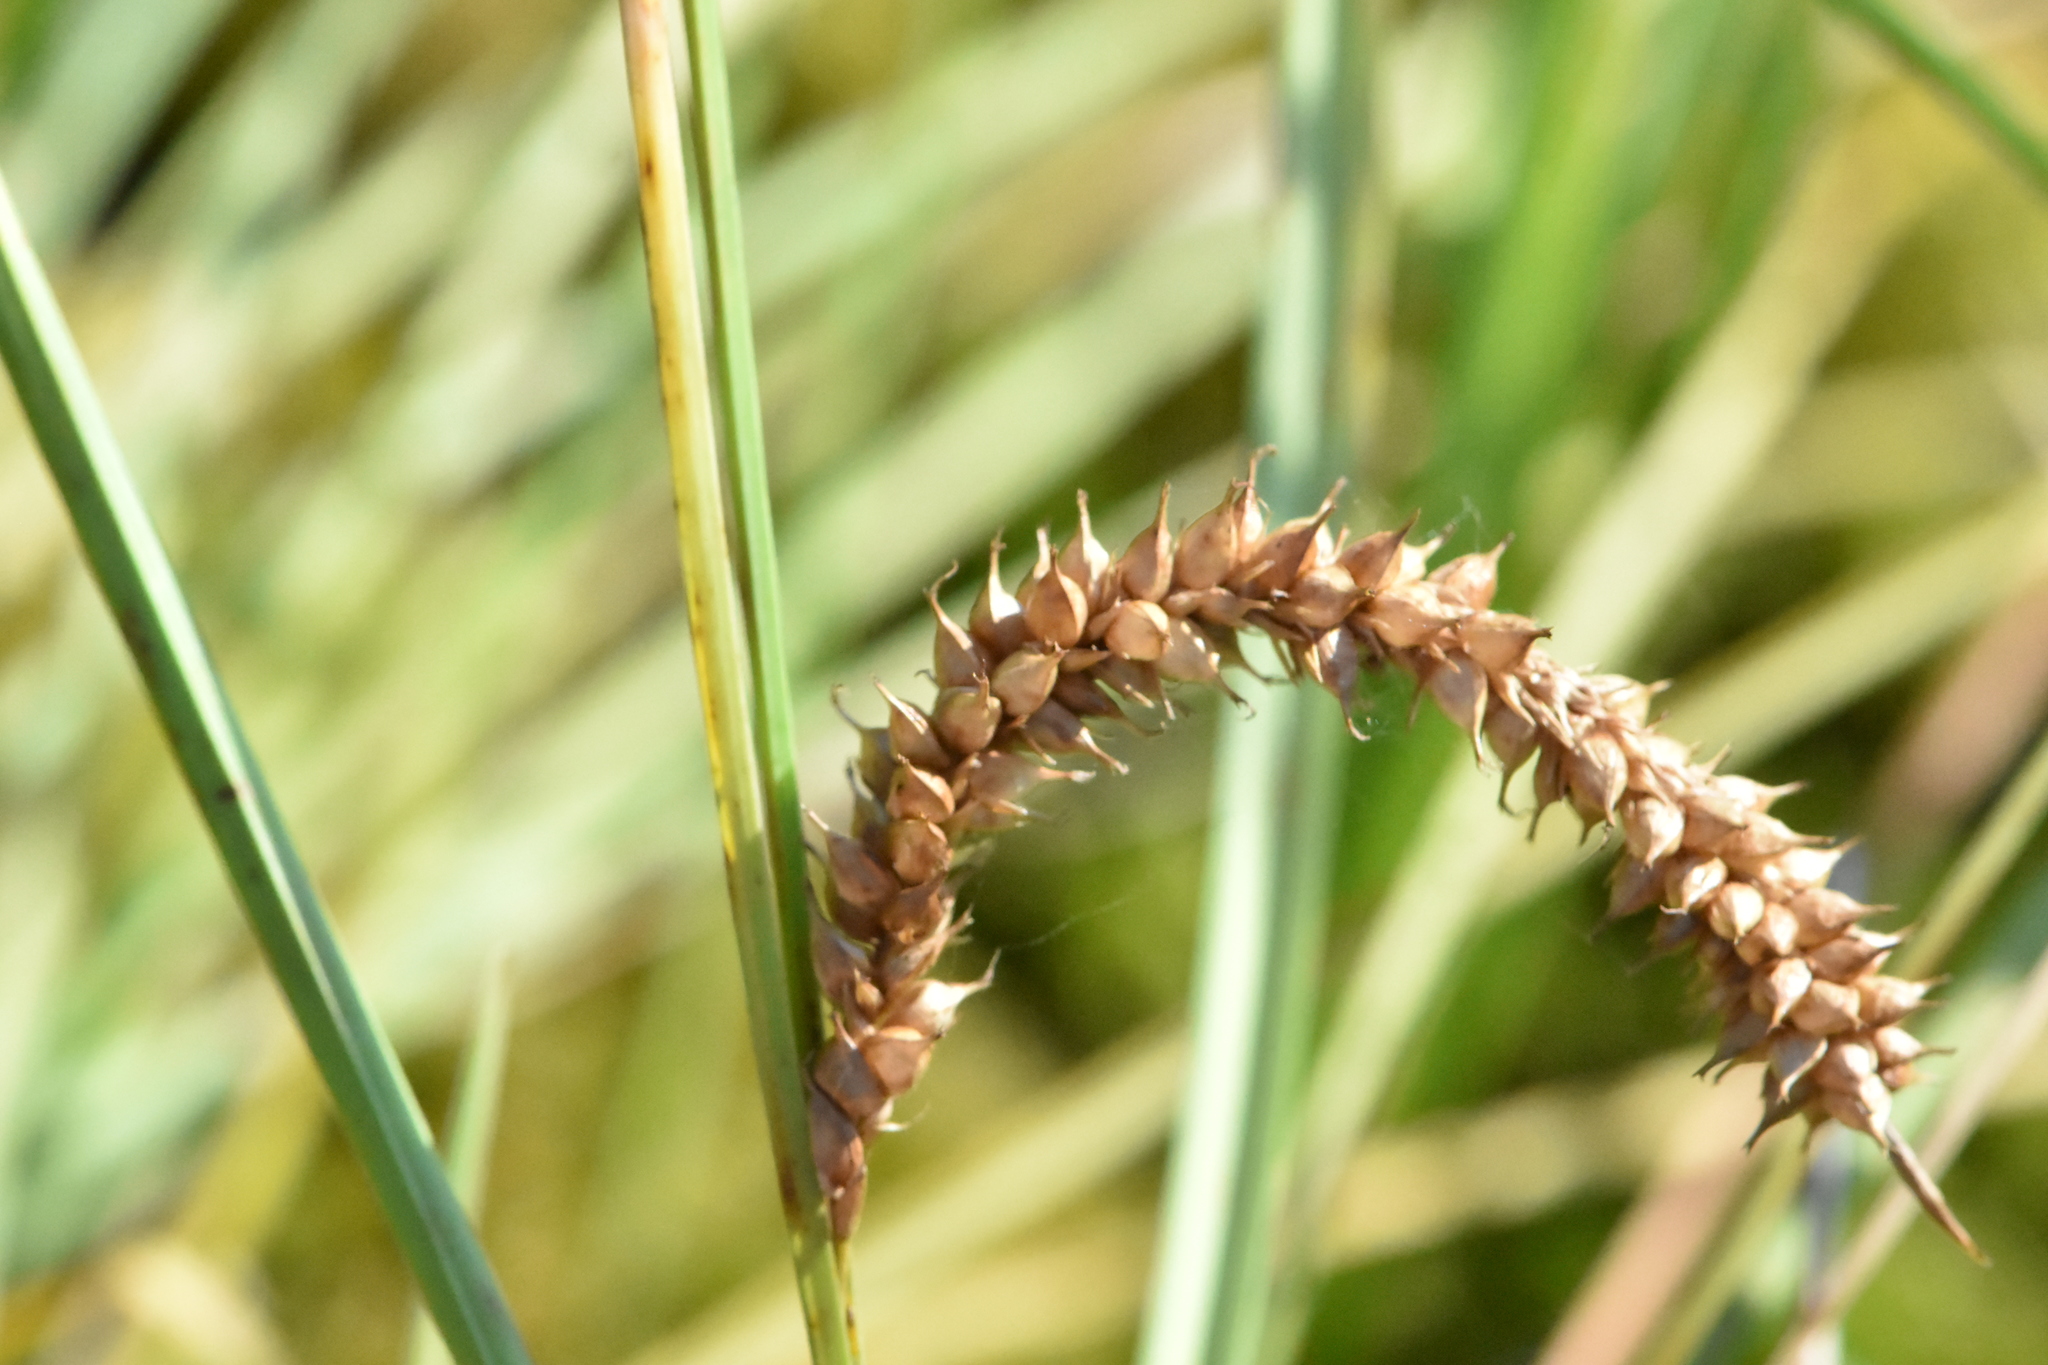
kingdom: Plantae
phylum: Tracheophyta
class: Liliopsida
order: Poales
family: Cyperaceae
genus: Carex
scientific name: Carex rostrata
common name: Bottle sedge
